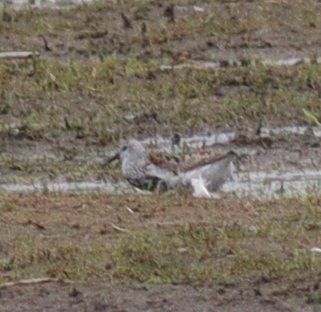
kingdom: Animalia
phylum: Chordata
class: Aves
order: Charadriiformes
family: Scolopacidae
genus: Calidris
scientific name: Calidris alpina
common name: Dunlin
